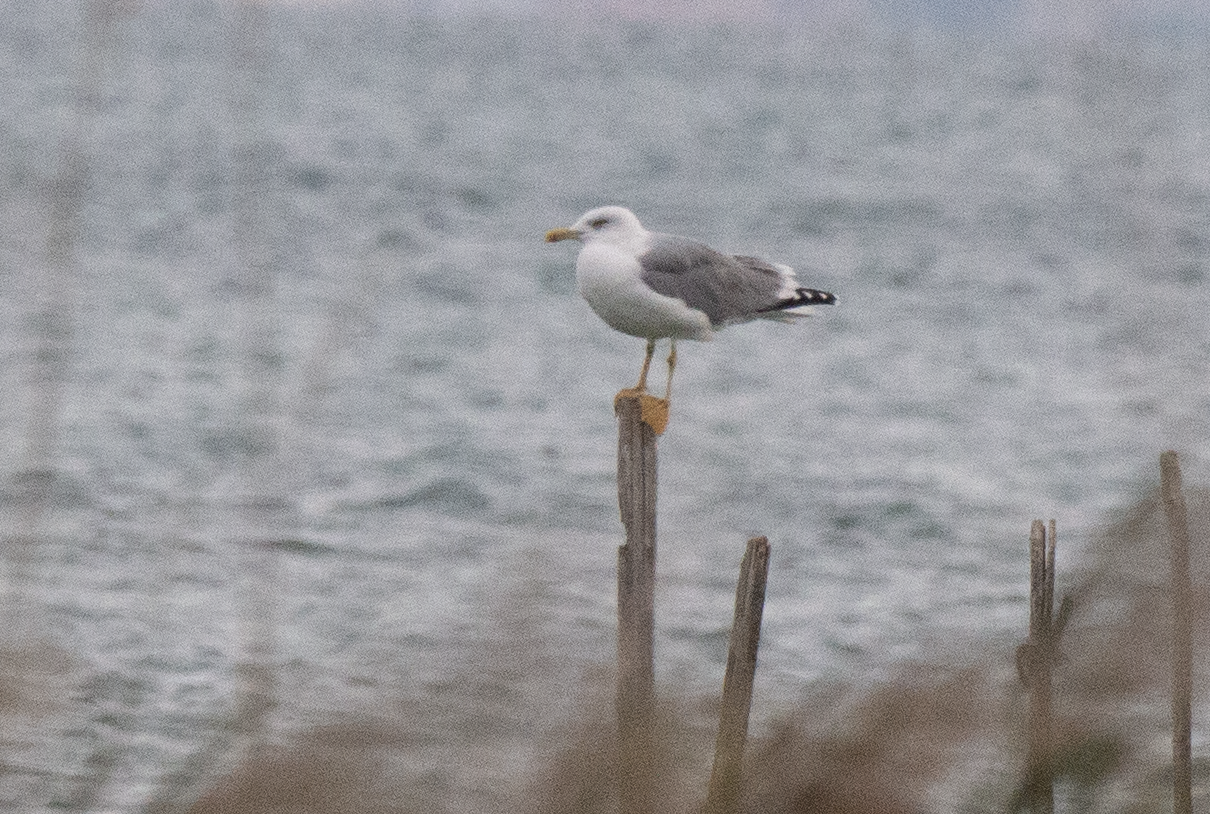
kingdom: Animalia
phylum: Chordata
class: Aves
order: Charadriiformes
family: Laridae
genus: Larus
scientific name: Larus michahellis
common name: Yellow-legged gull
